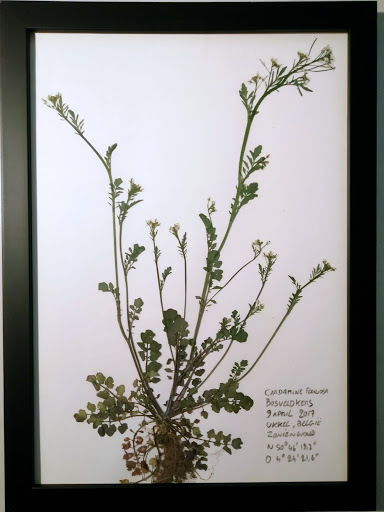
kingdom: Plantae
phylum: Tracheophyta
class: Magnoliopsida
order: Brassicales
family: Brassicaceae
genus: Cardamine
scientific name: Cardamine flexuosa
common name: Woodland bittercress
